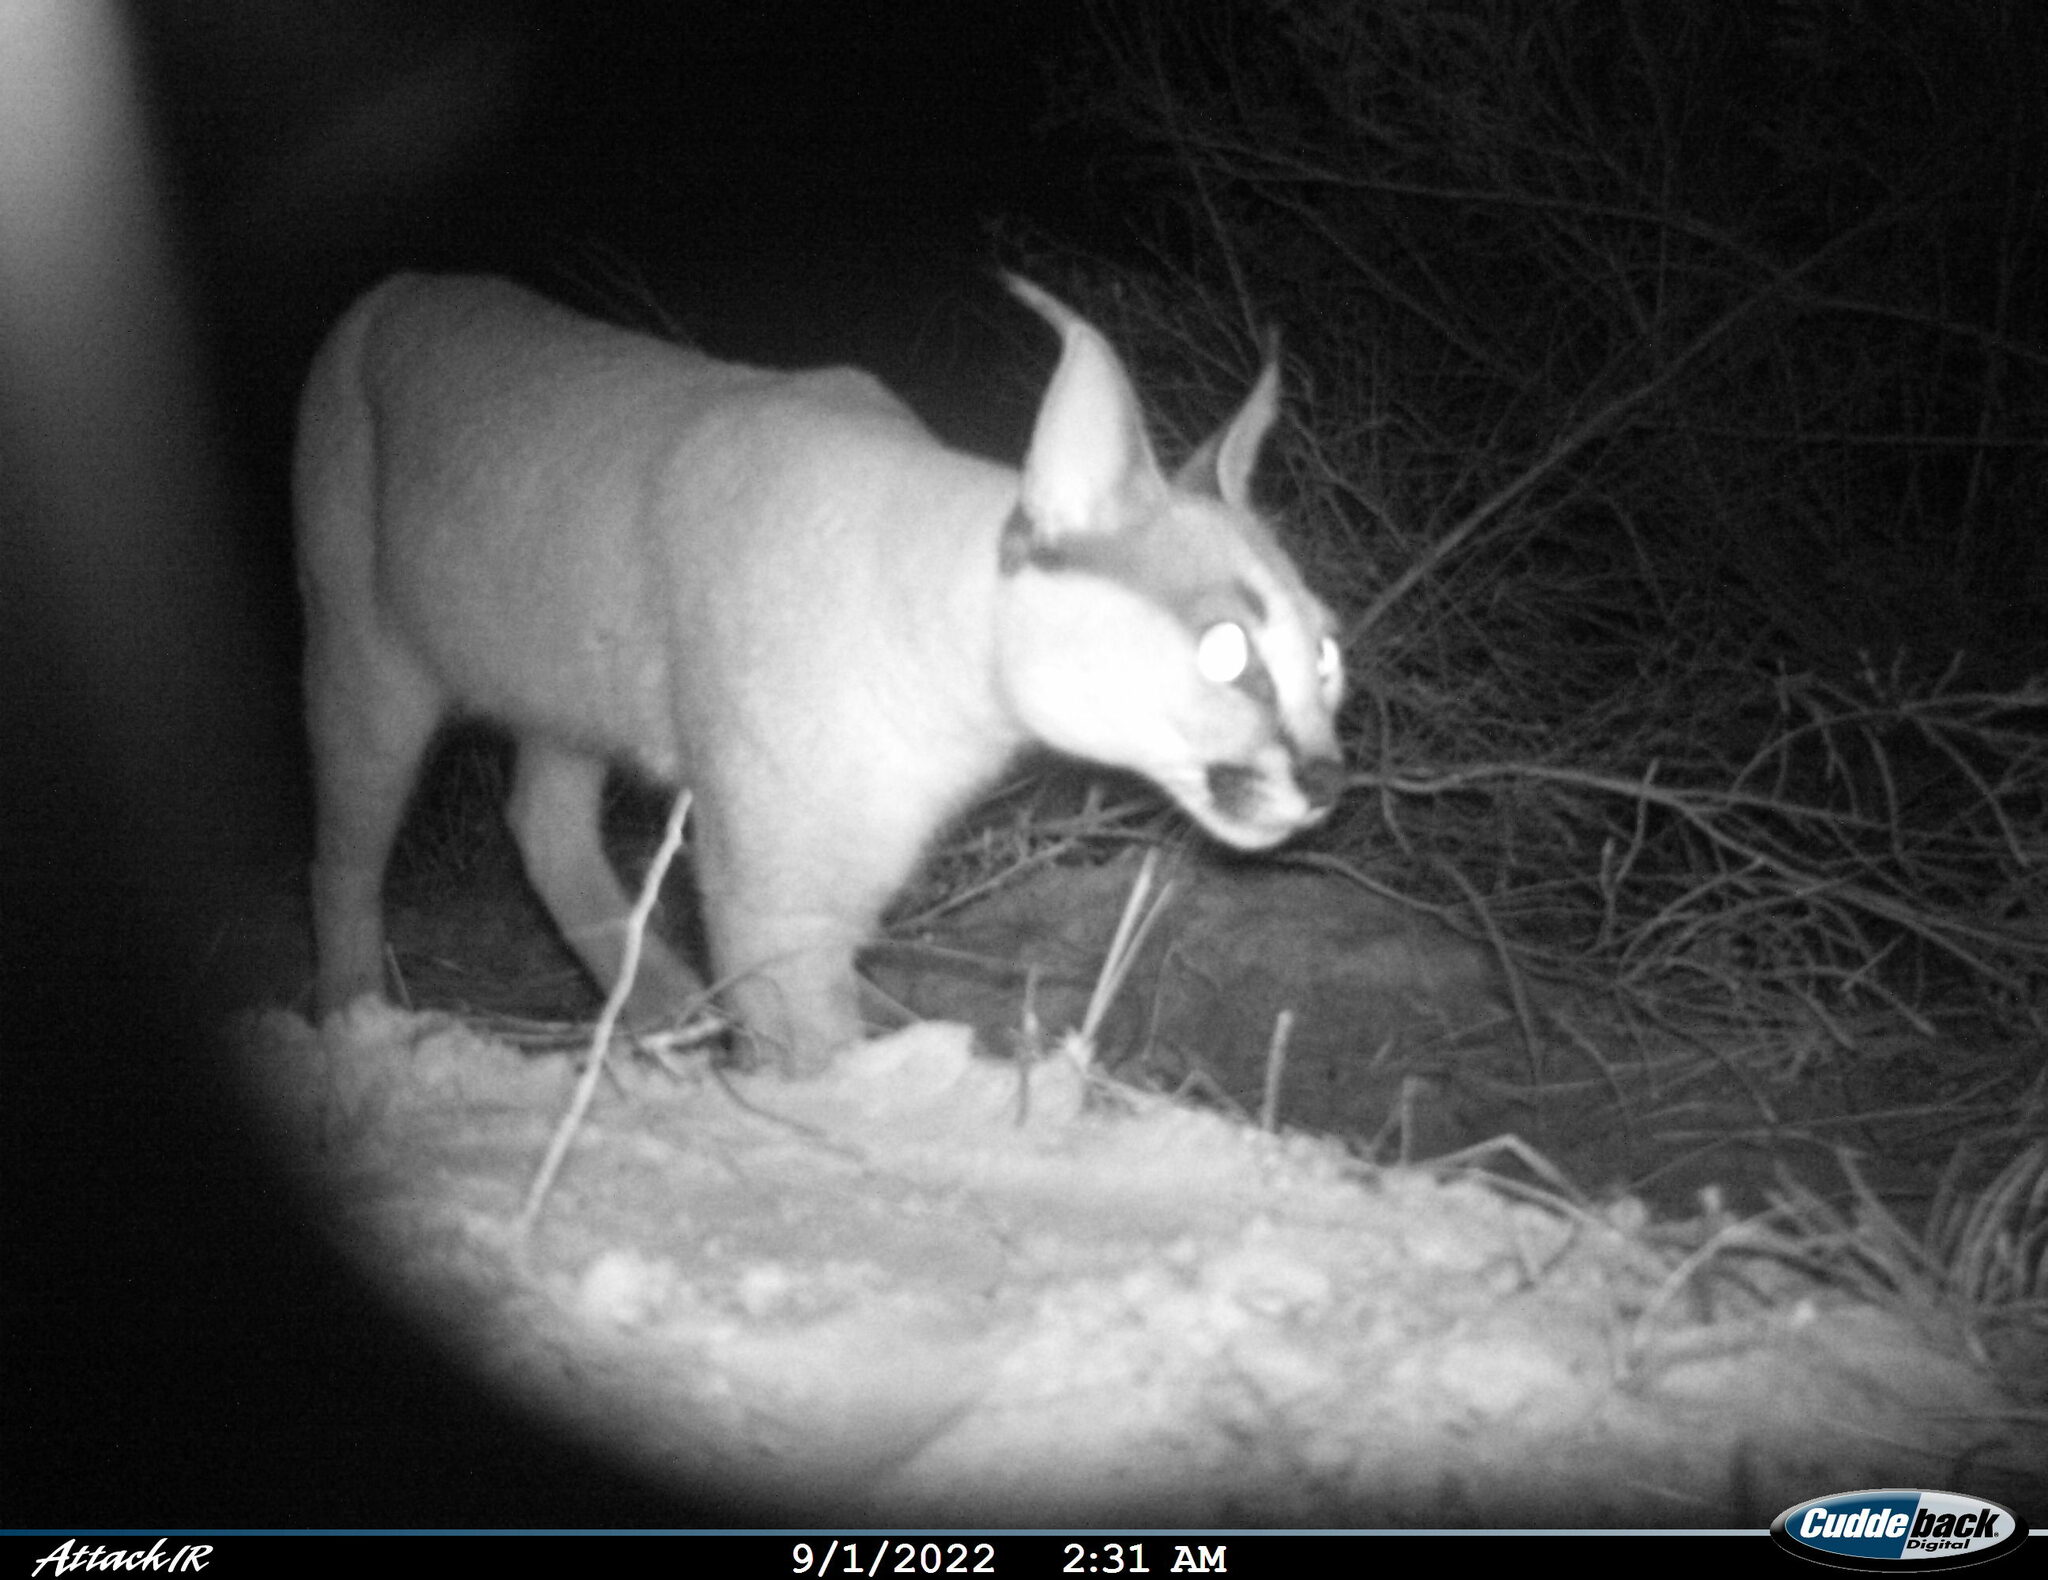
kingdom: Animalia
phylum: Chordata
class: Mammalia
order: Carnivora
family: Felidae
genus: Caracal
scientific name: Caracal caracal
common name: Caracal
